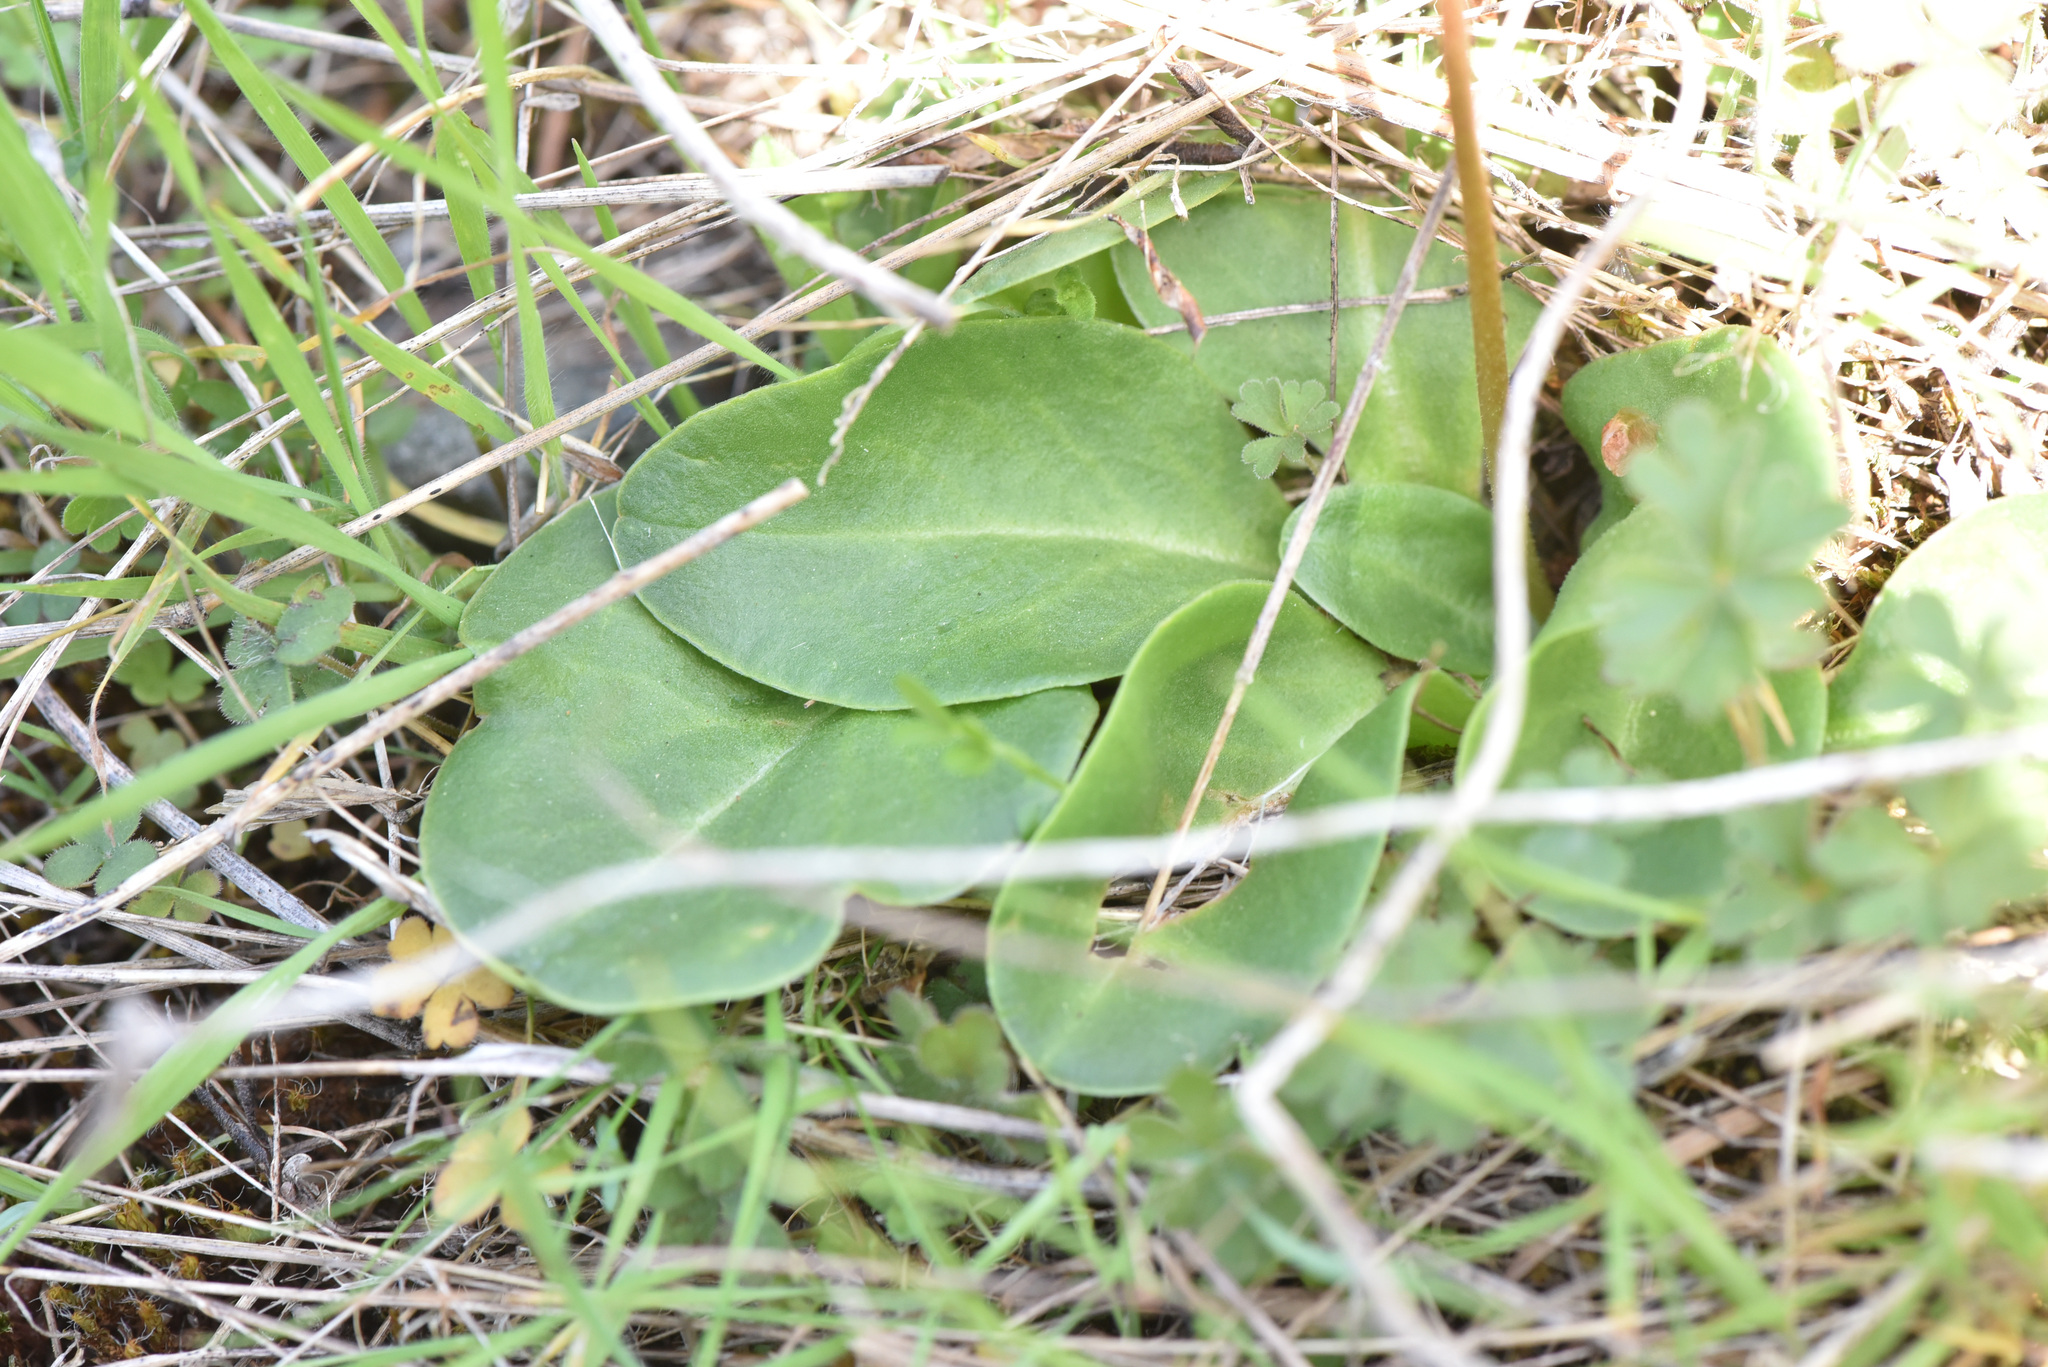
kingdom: Plantae
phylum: Tracheophyta
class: Magnoliopsida
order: Ericales
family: Primulaceae
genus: Dodecatheon
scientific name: Dodecatheon hendersonii
